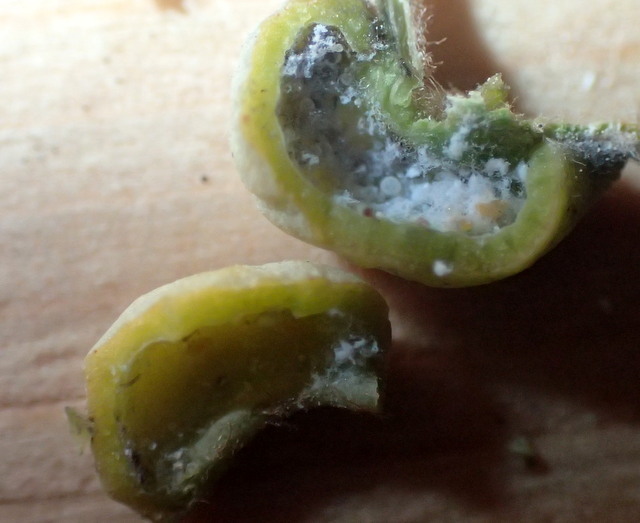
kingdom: Animalia
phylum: Arthropoda
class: Insecta
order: Hemiptera
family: Triozidae
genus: Trioza
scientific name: Trioza magnoliae
